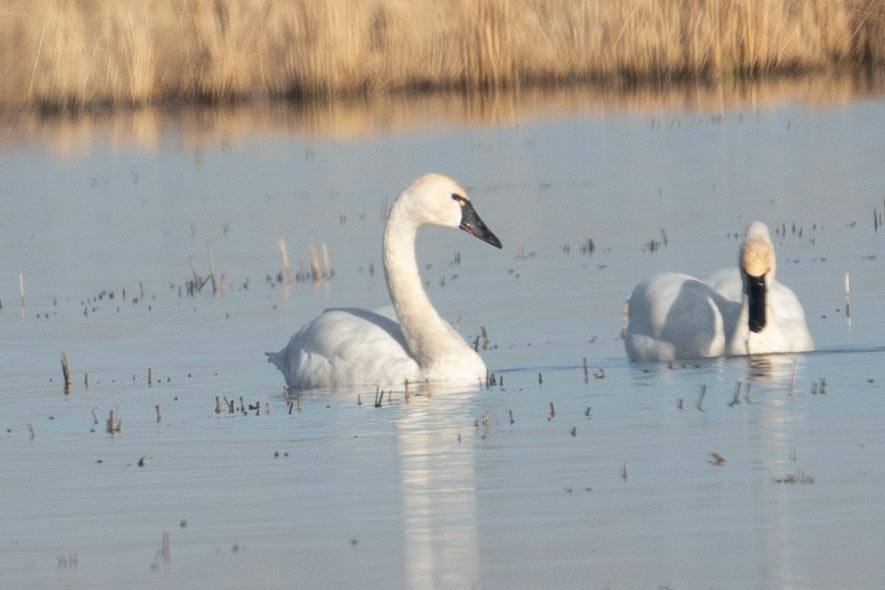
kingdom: Animalia
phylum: Chordata
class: Aves
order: Anseriformes
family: Anatidae
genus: Cygnus
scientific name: Cygnus columbianus
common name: Tundra swan
